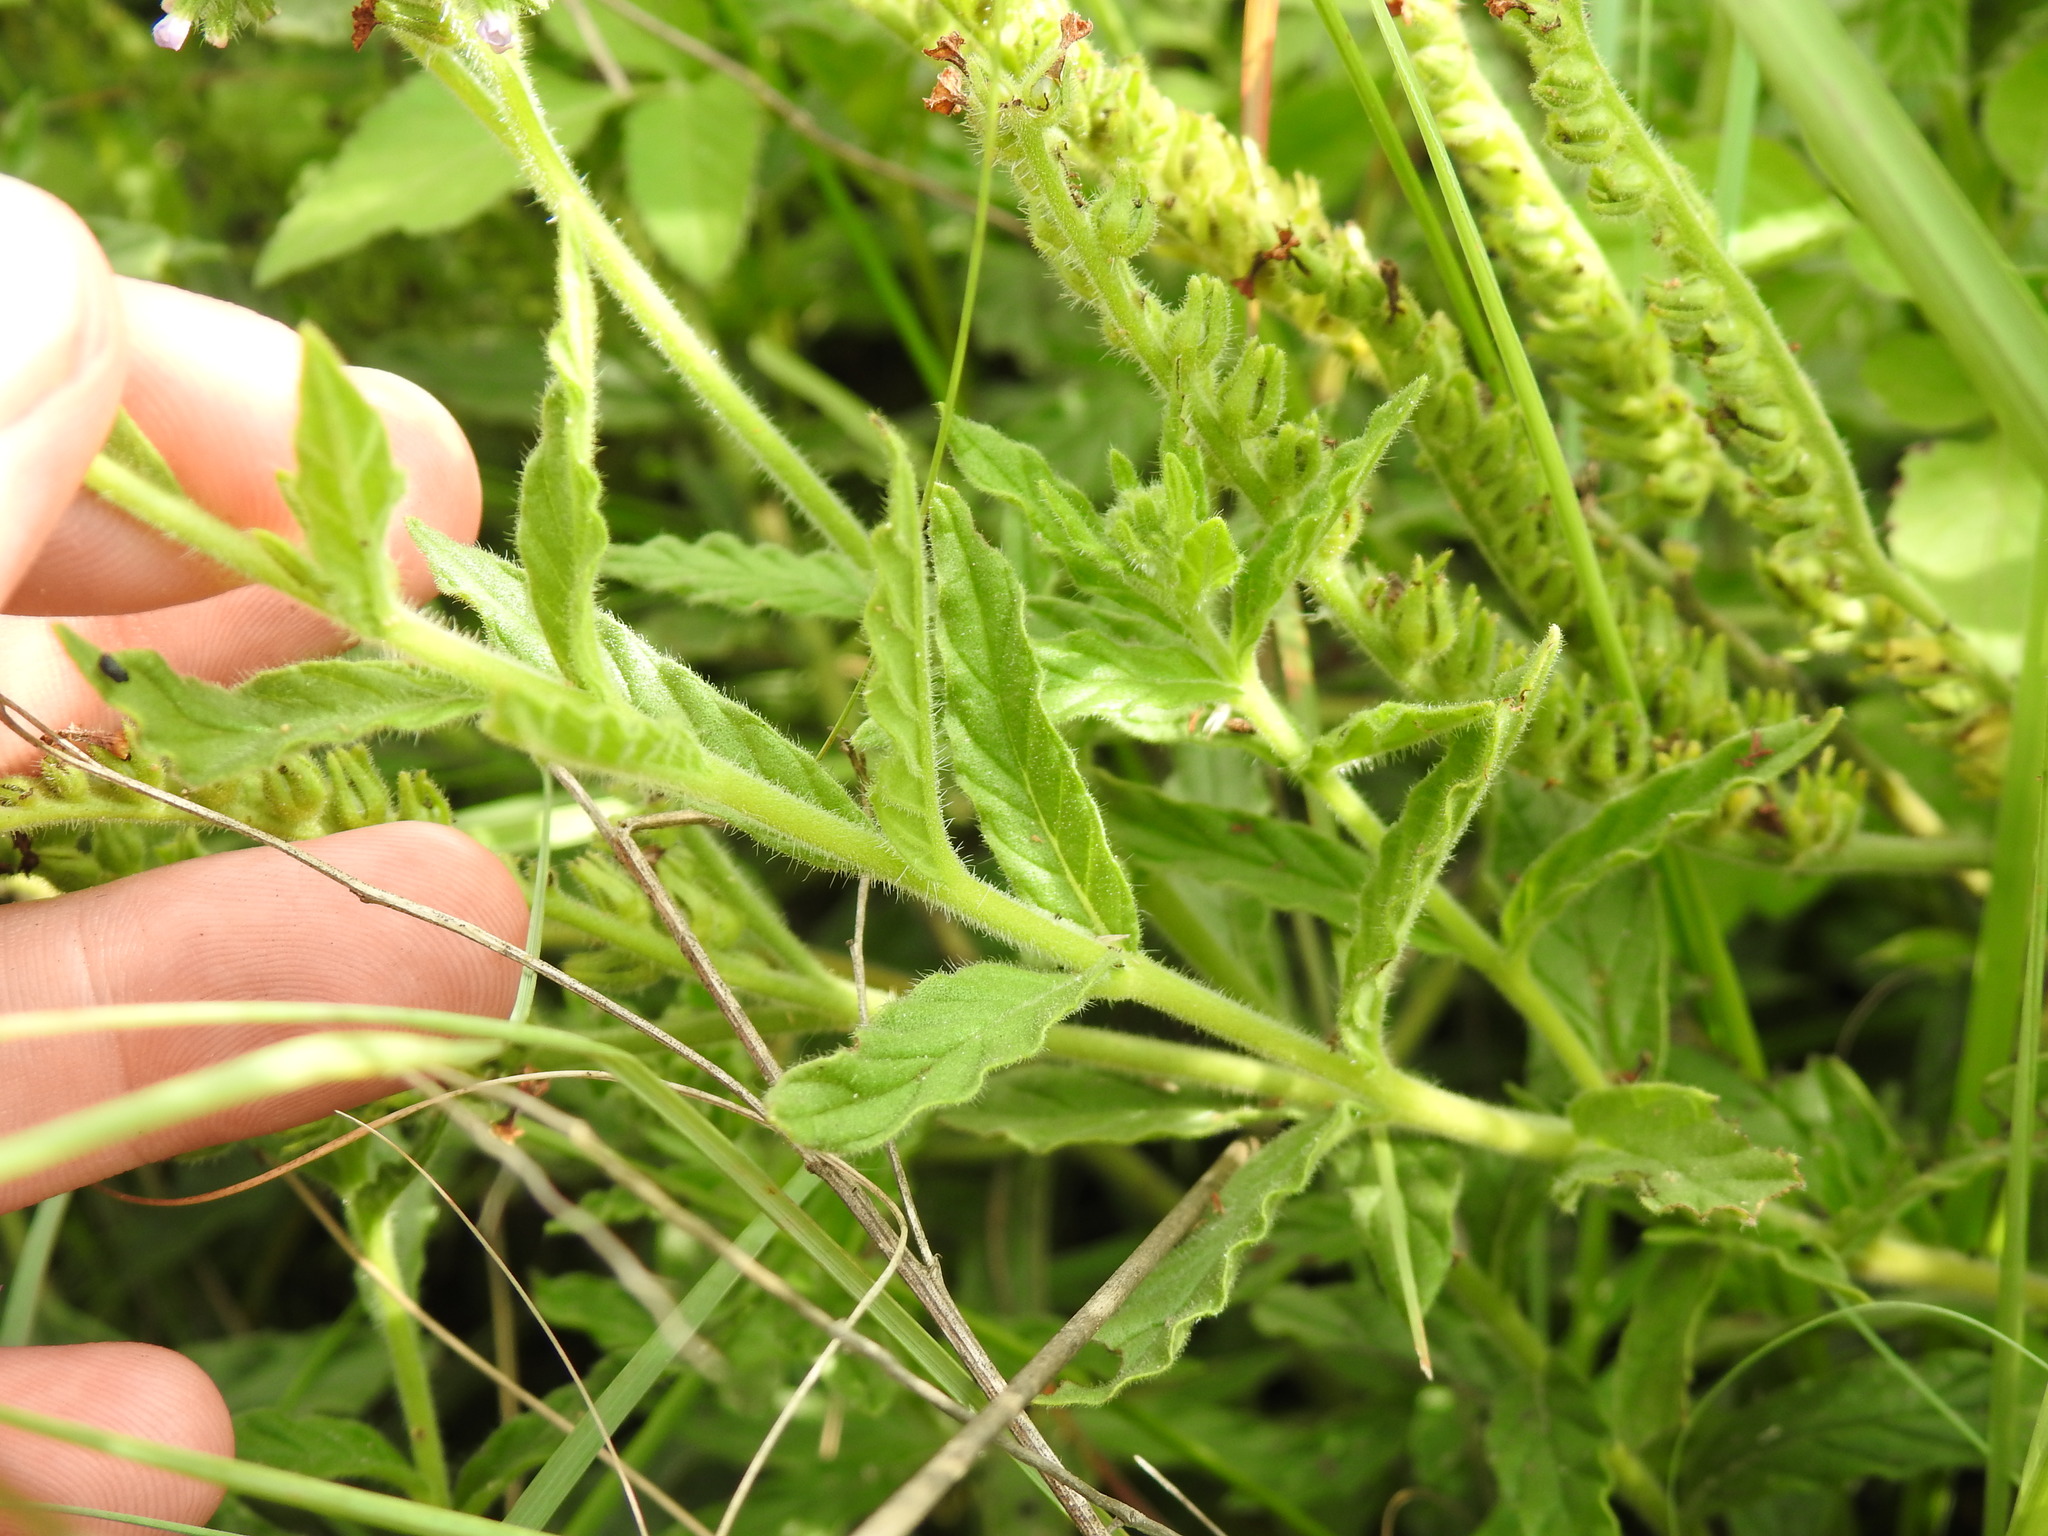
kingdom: Plantae
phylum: Tracheophyta
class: Magnoliopsida
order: Boraginales
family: Heliotropiaceae
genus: Heliotropium
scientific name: Heliotropium amplexicaule
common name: Clasping heliotrope
